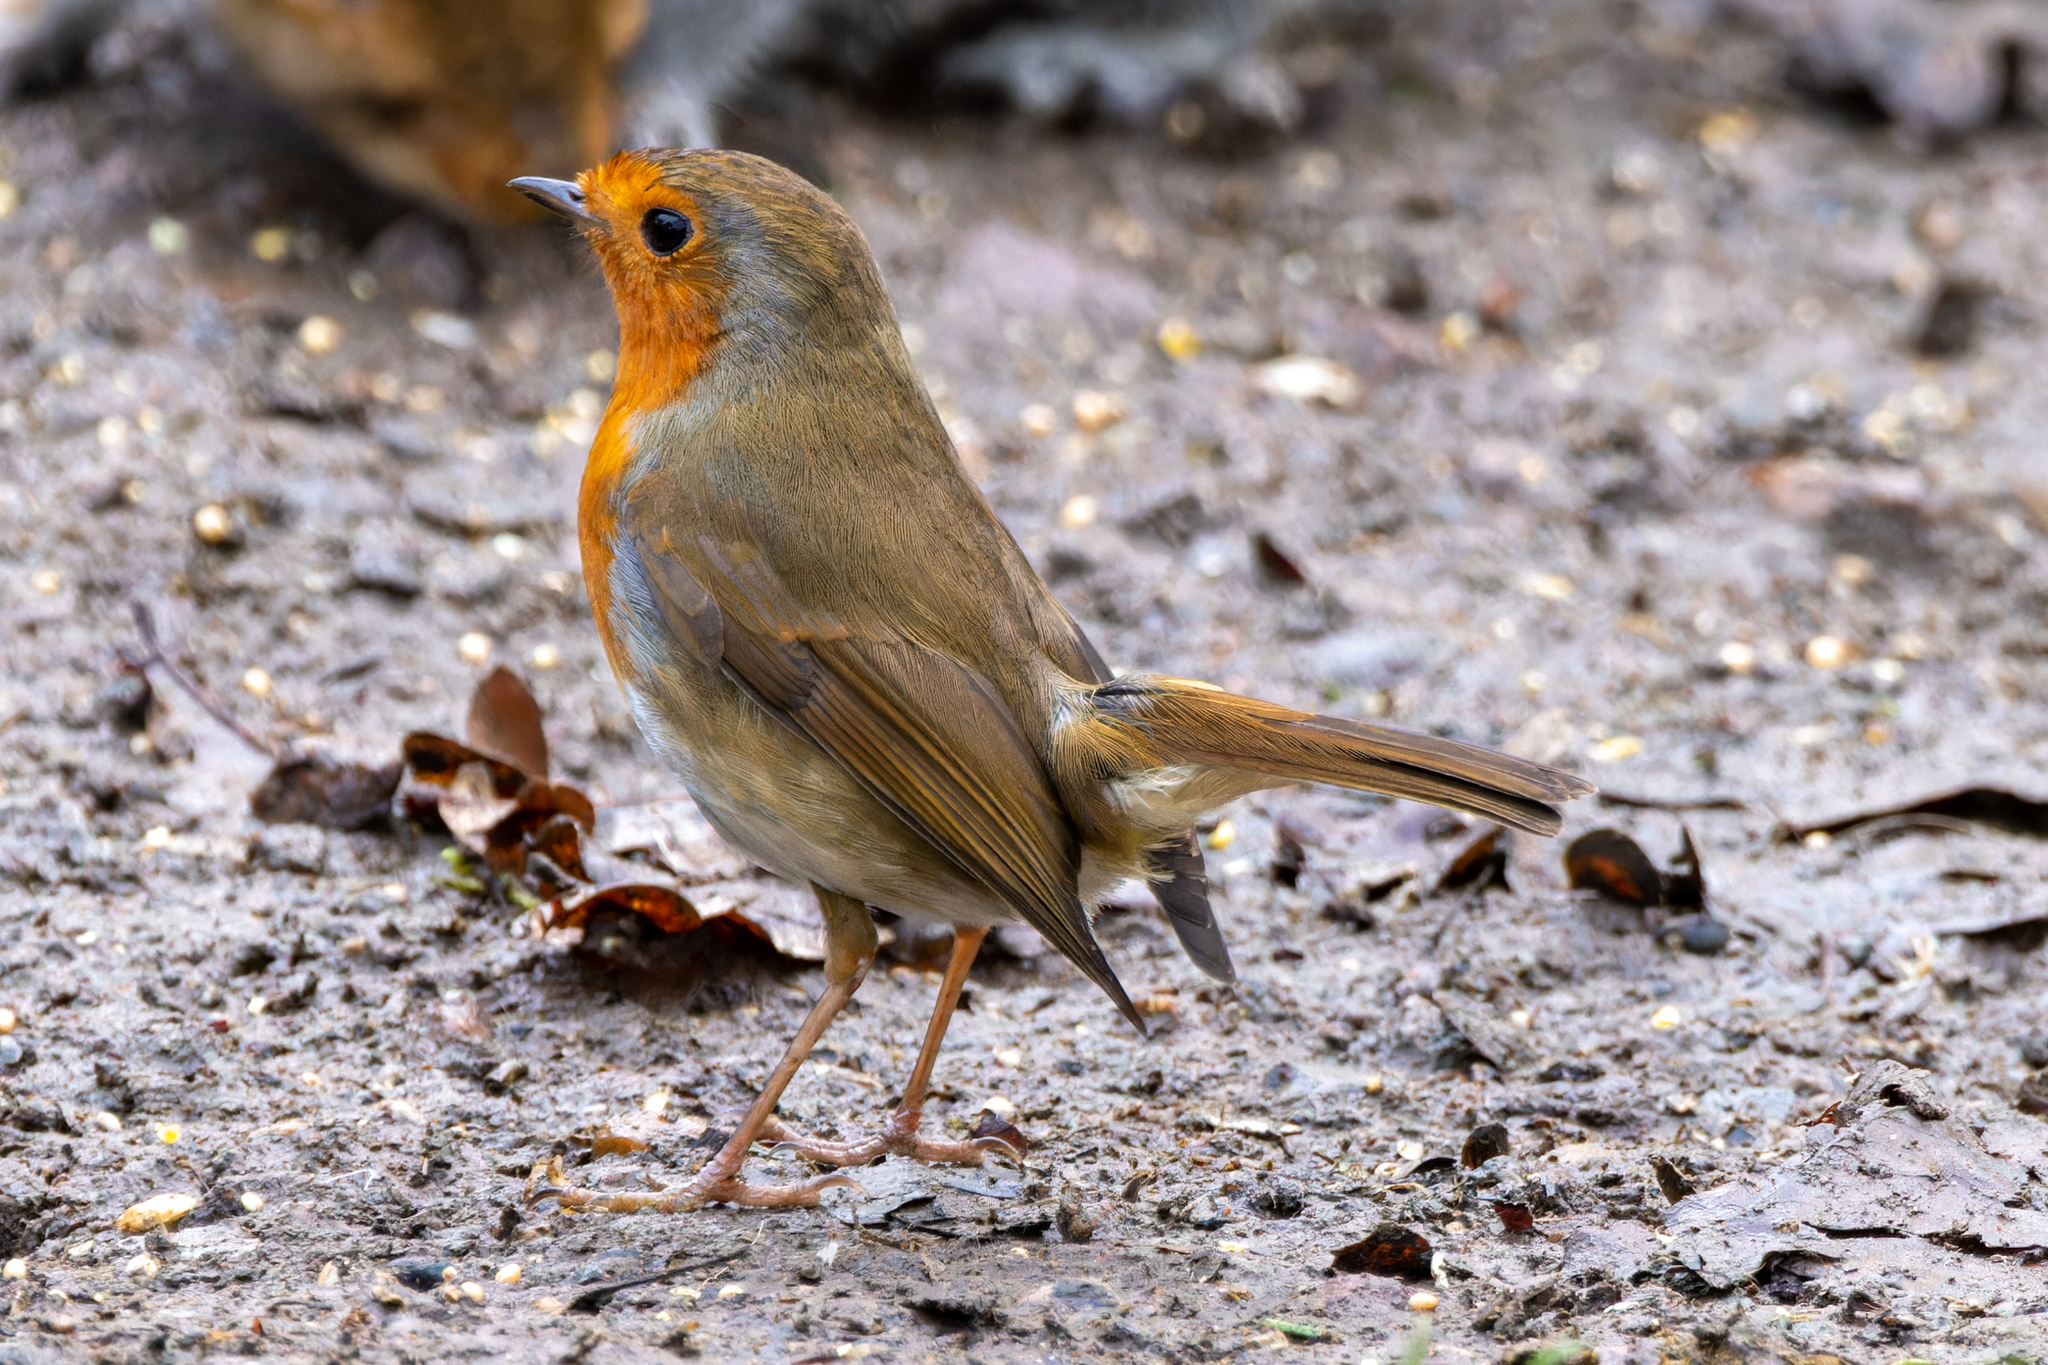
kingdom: Animalia
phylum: Chordata
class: Aves
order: Passeriformes
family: Muscicapidae
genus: Erithacus
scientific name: Erithacus rubecula
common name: European robin
